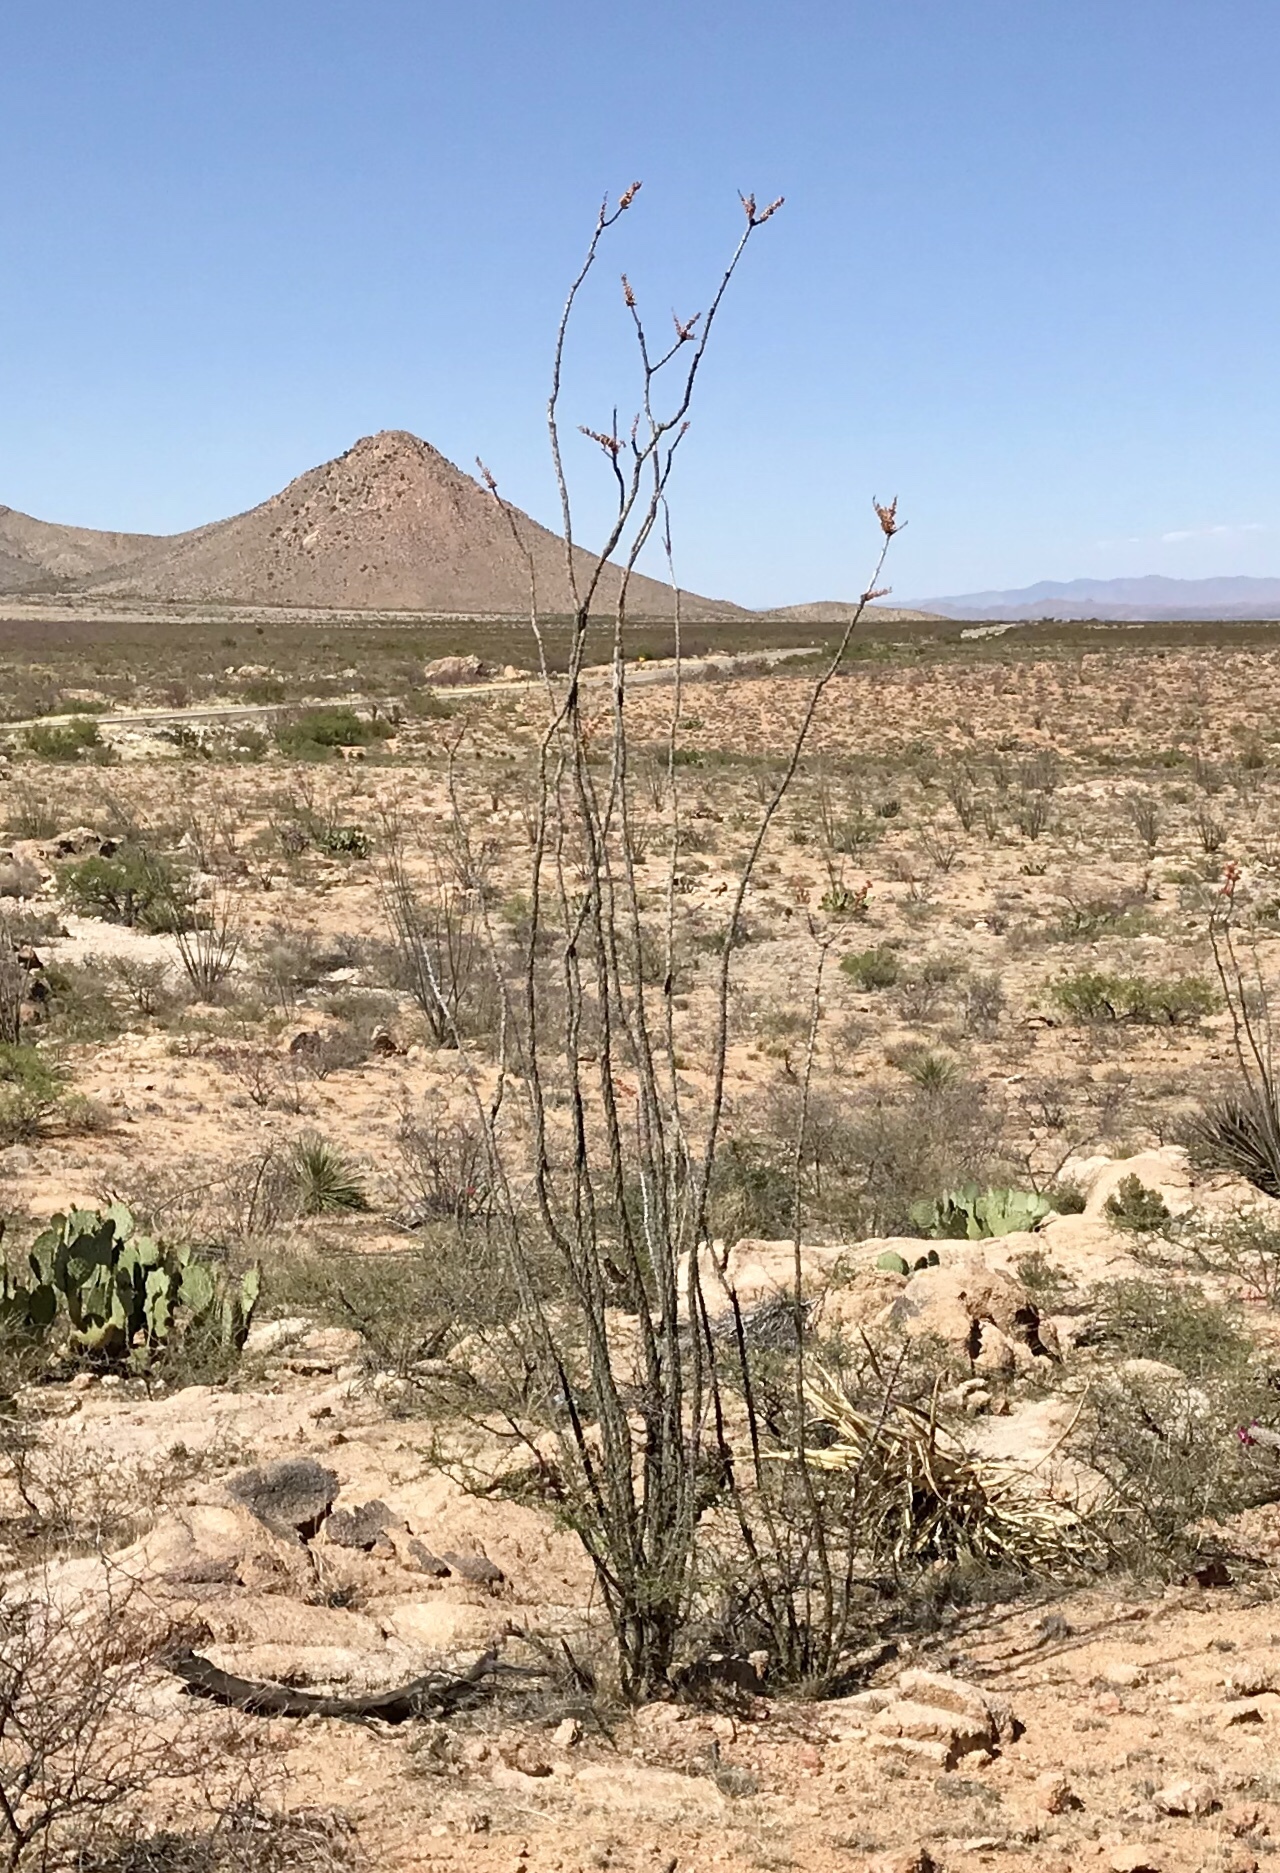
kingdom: Plantae
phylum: Tracheophyta
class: Magnoliopsida
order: Ericales
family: Fouquieriaceae
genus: Fouquieria
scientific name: Fouquieria splendens
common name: Vine-cactus
